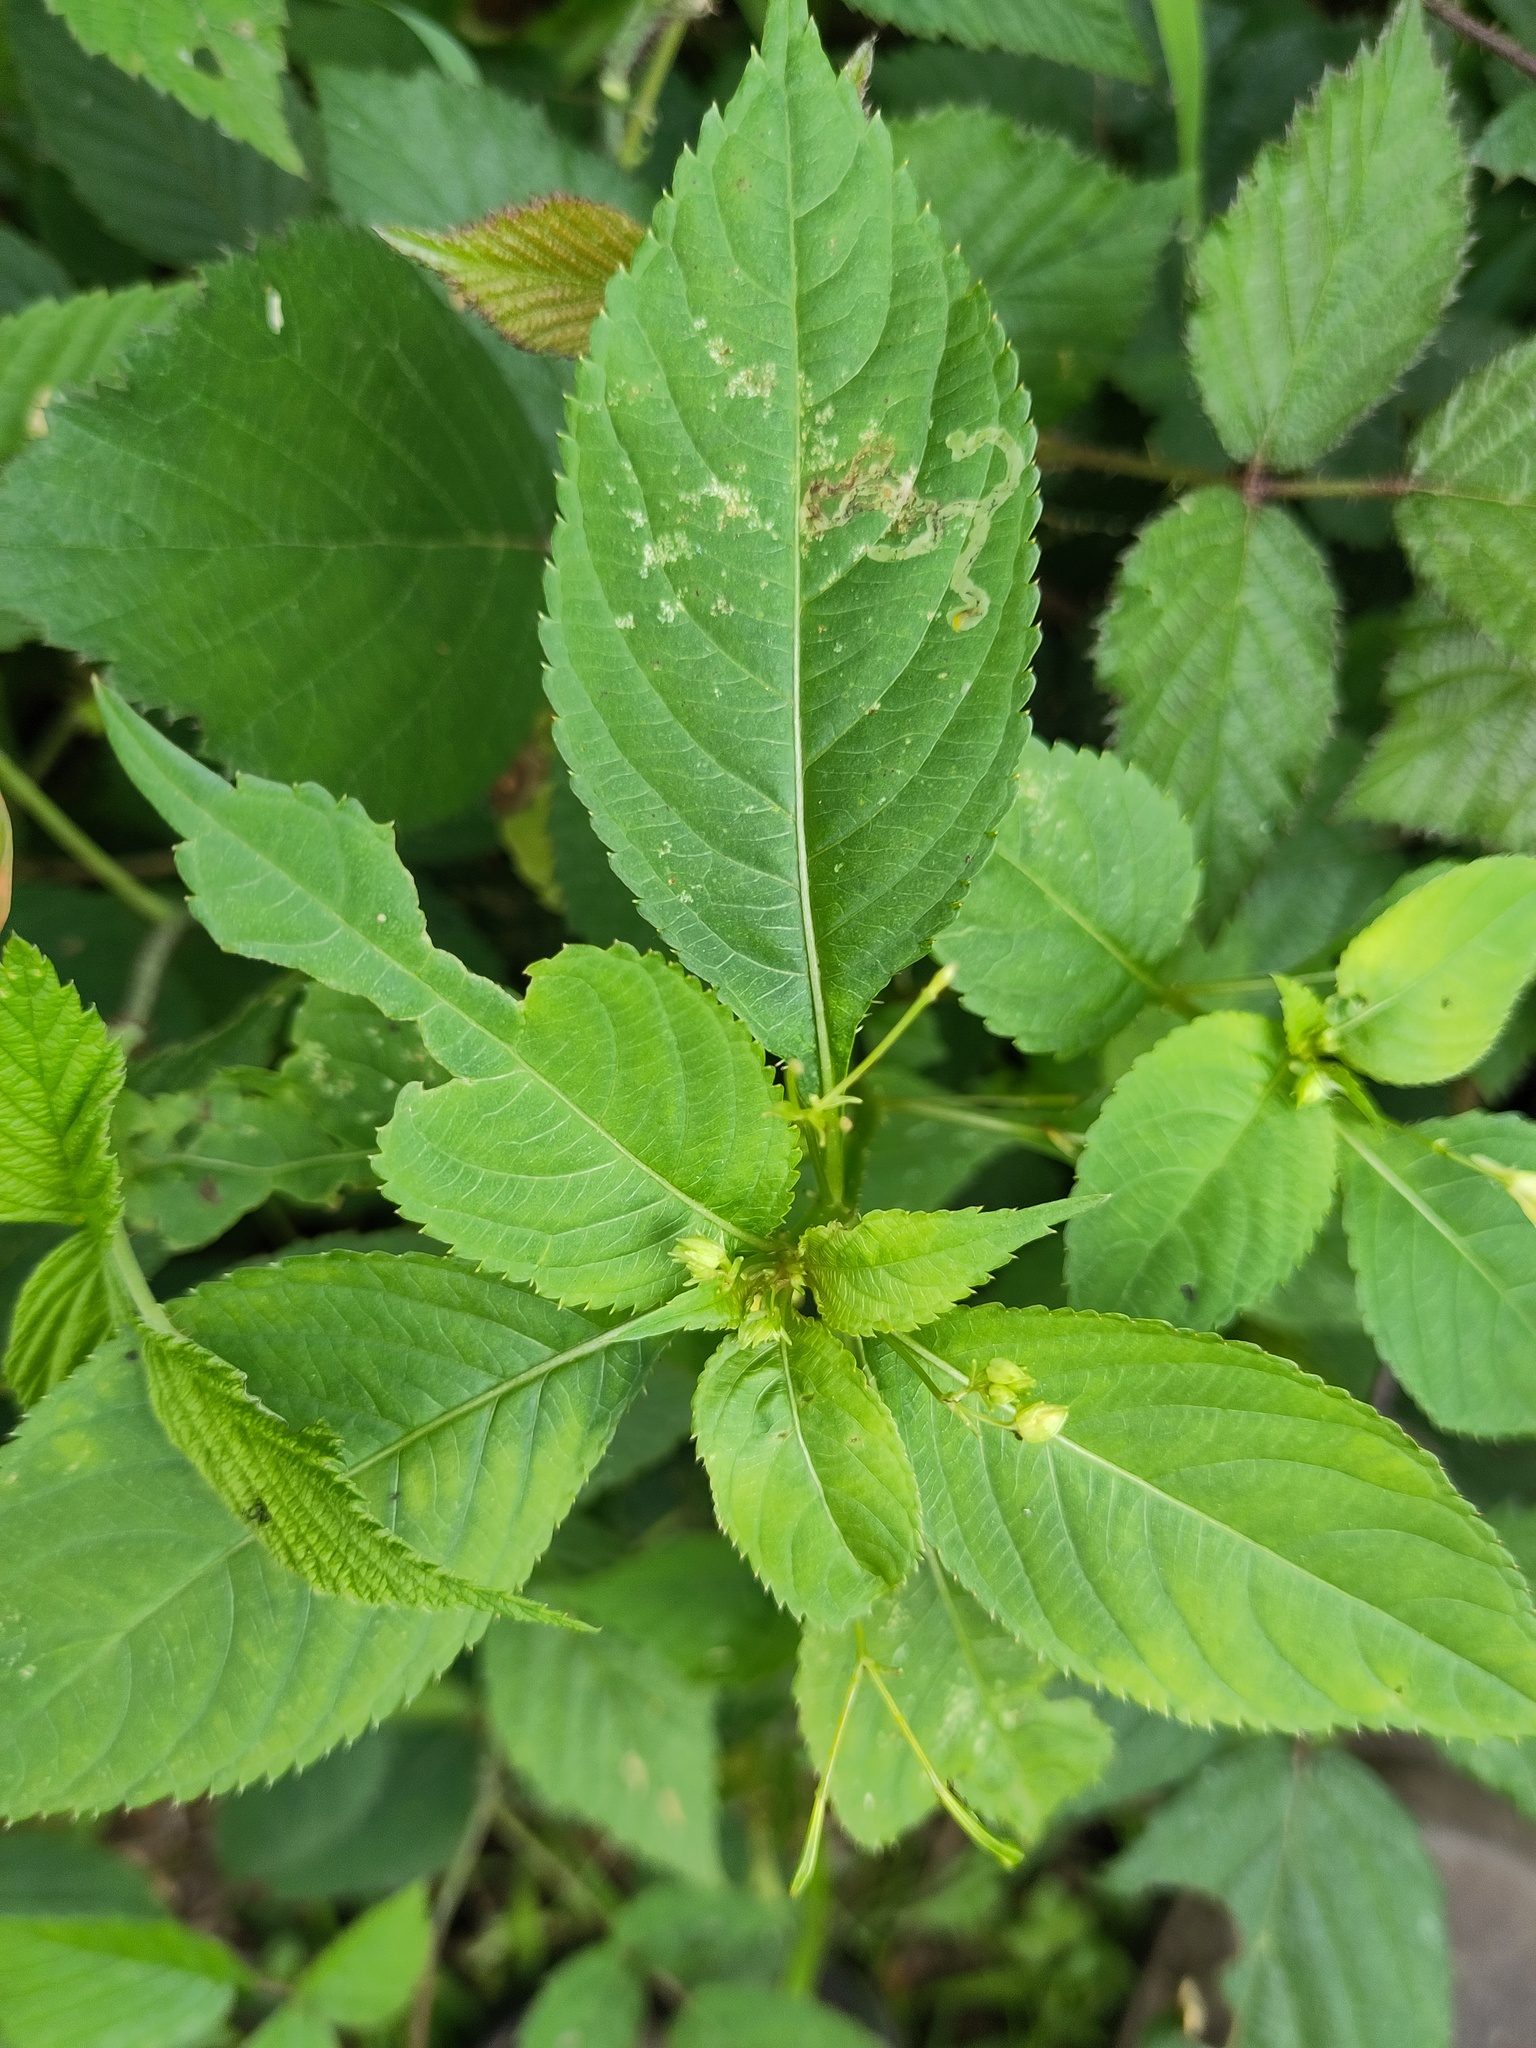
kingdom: Animalia
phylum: Arthropoda
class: Insecta
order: Diptera
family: Agromyzidae
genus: Phytoliriomyza
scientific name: Phytoliriomyza melampyga
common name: Jewelweed leaf-miner fly
